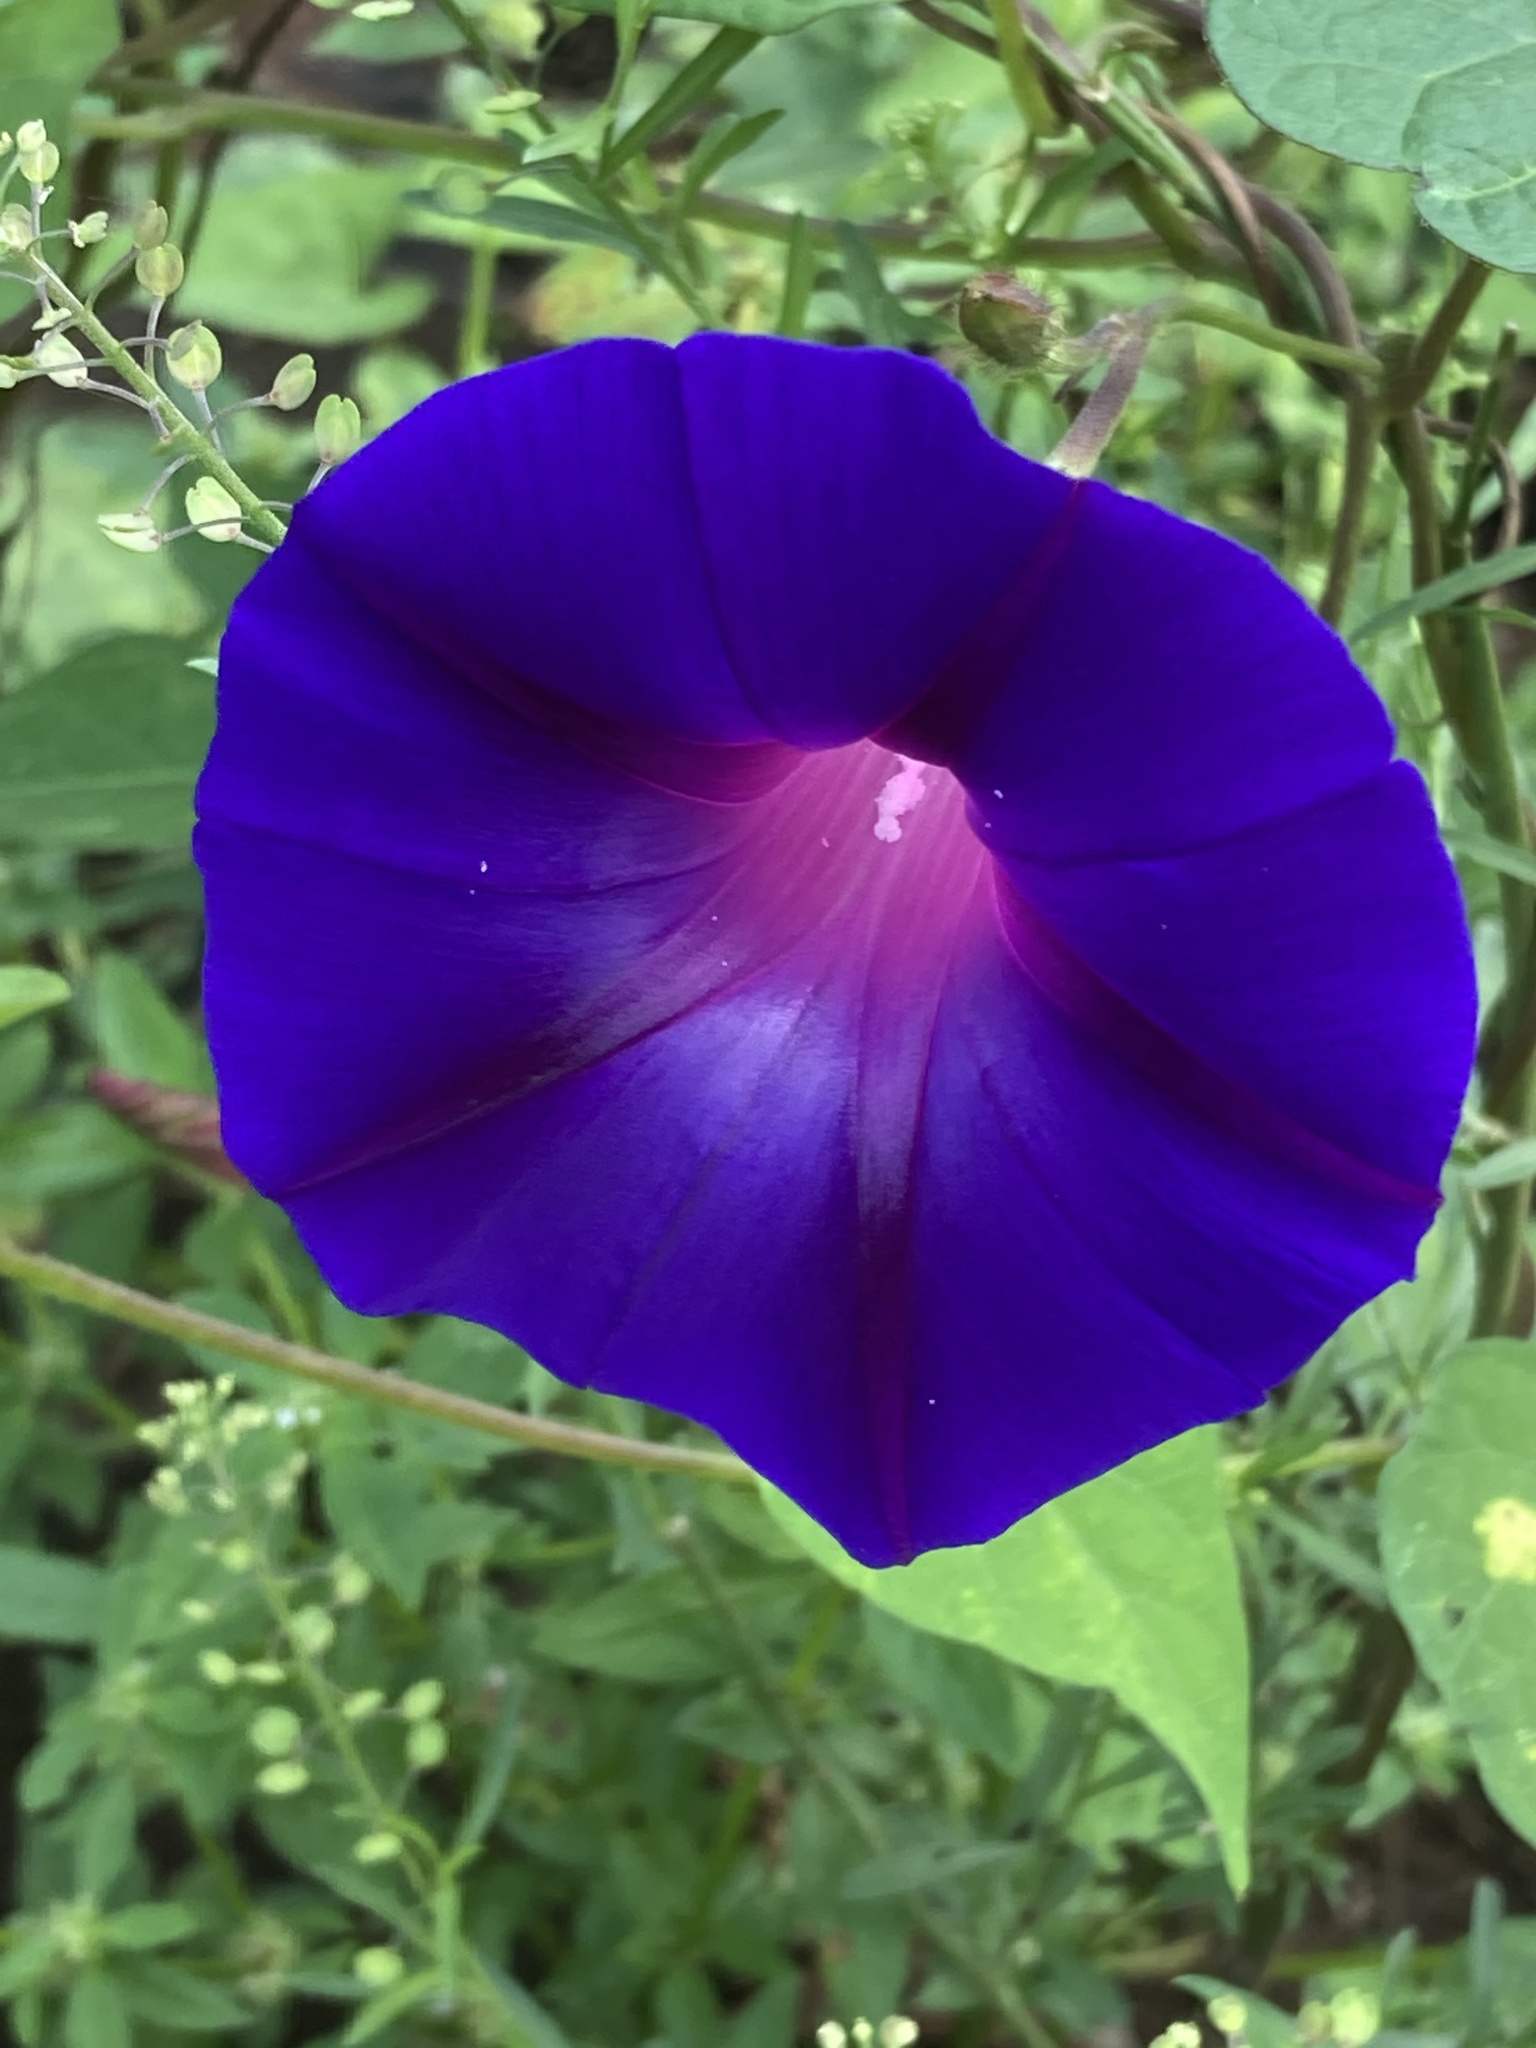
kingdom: Plantae
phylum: Tracheophyta
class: Magnoliopsida
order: Solanales
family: Convolvulaceae
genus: Ipomoea
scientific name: Ipomoea purpurea
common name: Common morning-glory
